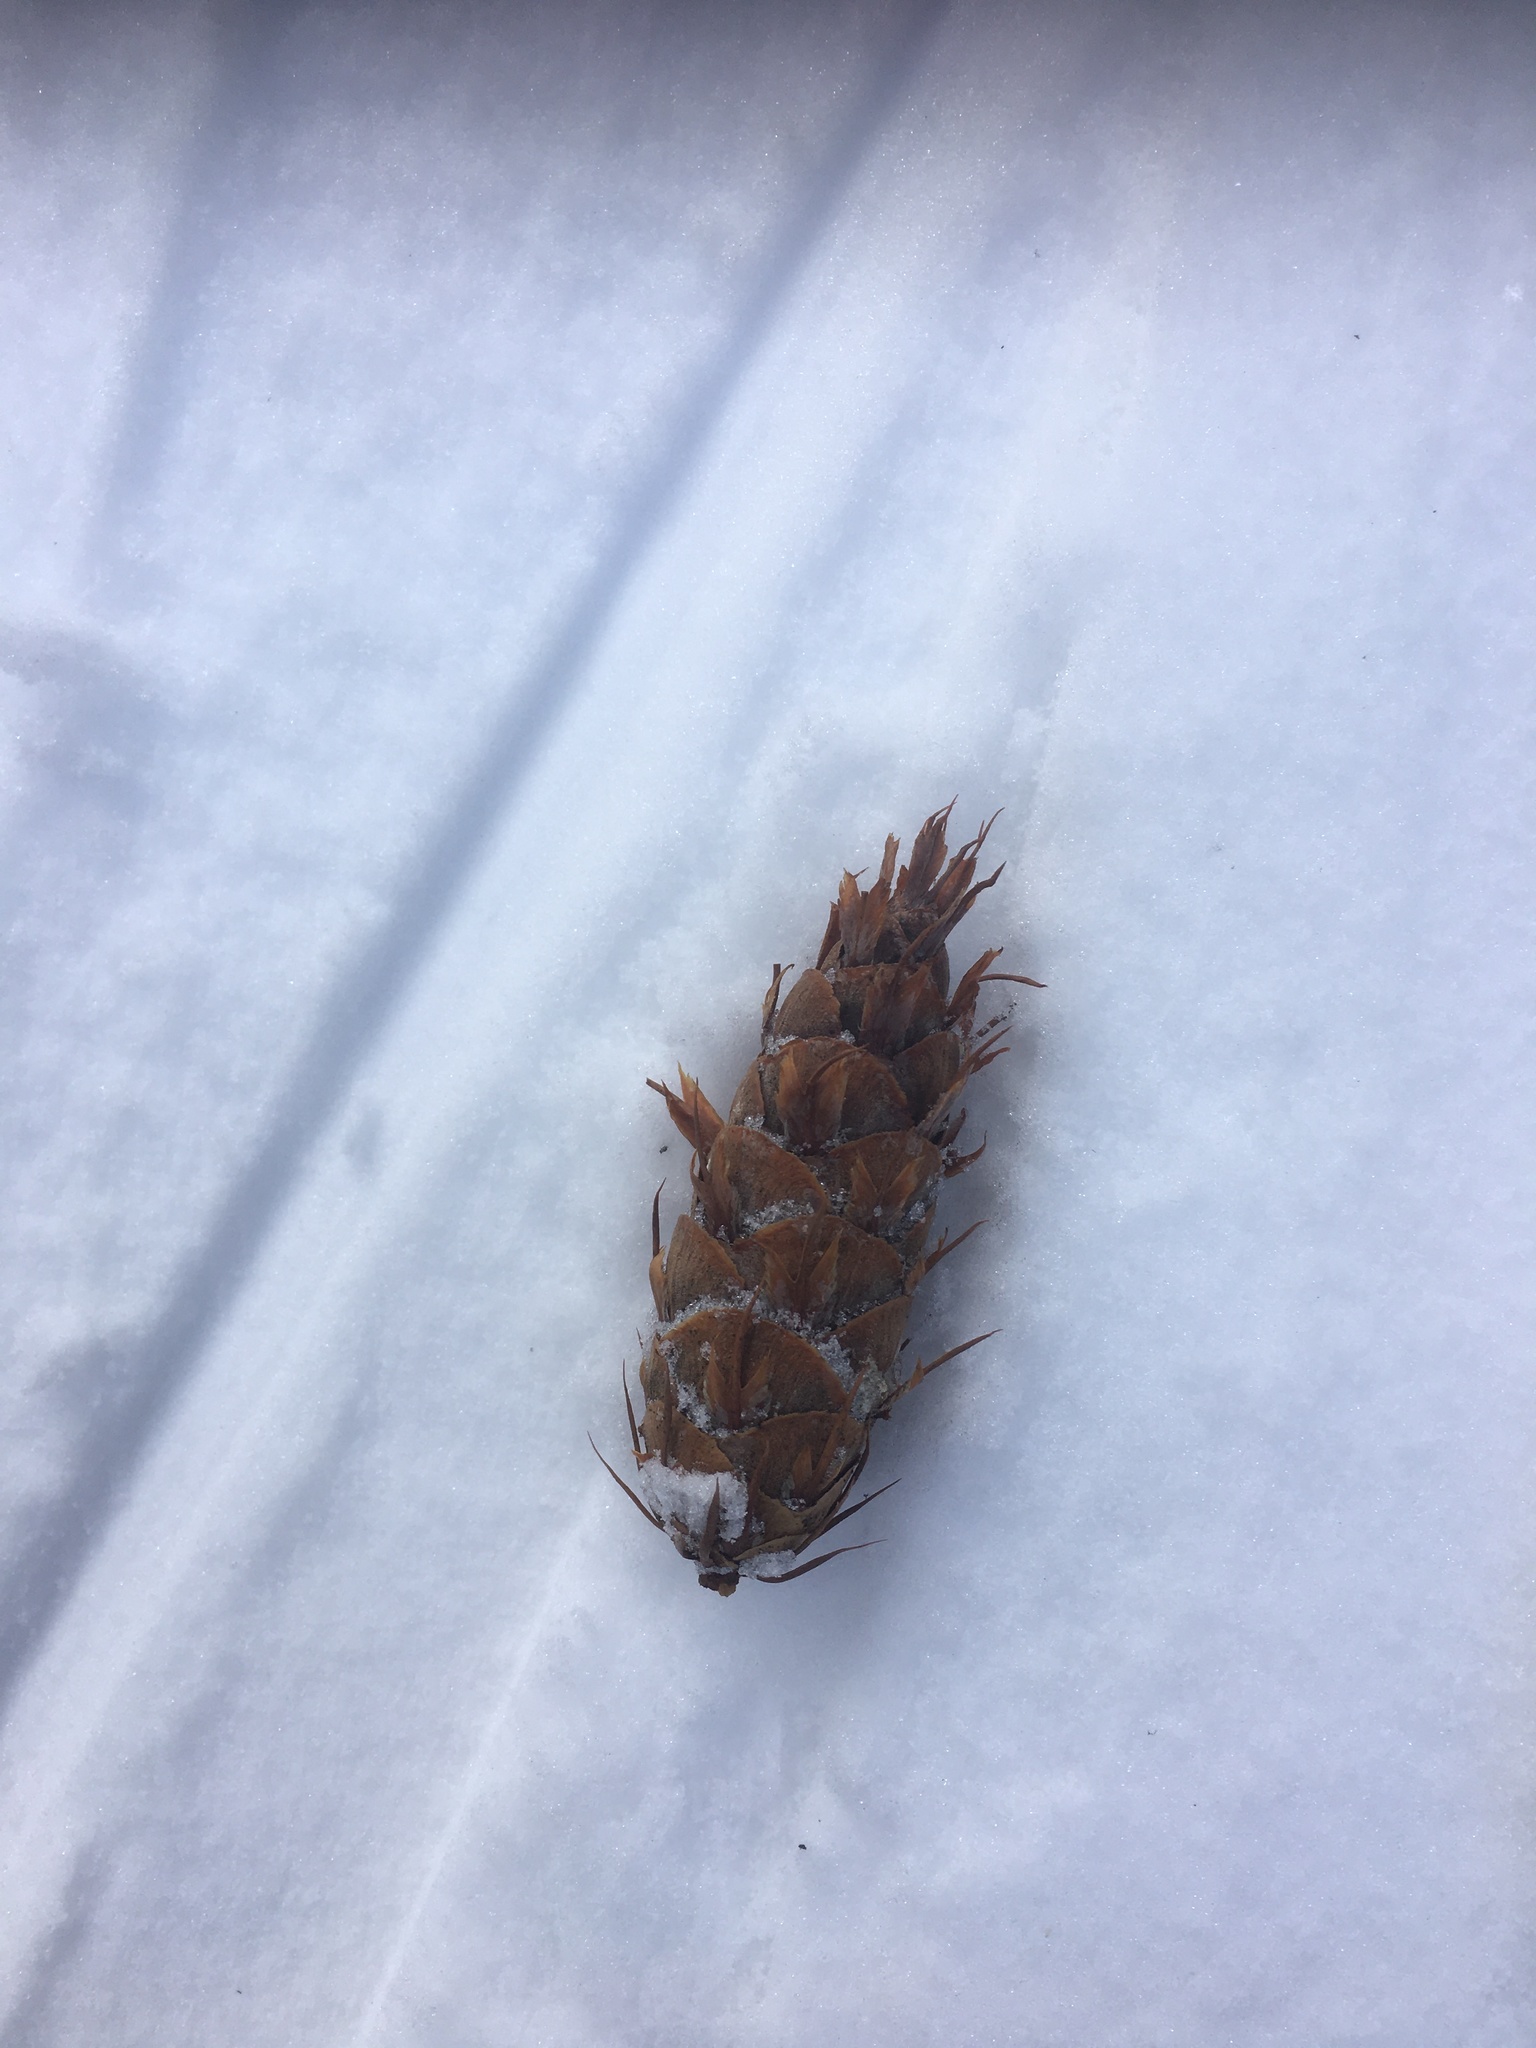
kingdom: Plantae
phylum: Tracheophyta
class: Pinopsida
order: Pinales
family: Pinaceae
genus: Pseudotsuga
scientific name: Pseudotsuga menziesii
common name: Douglas fir
